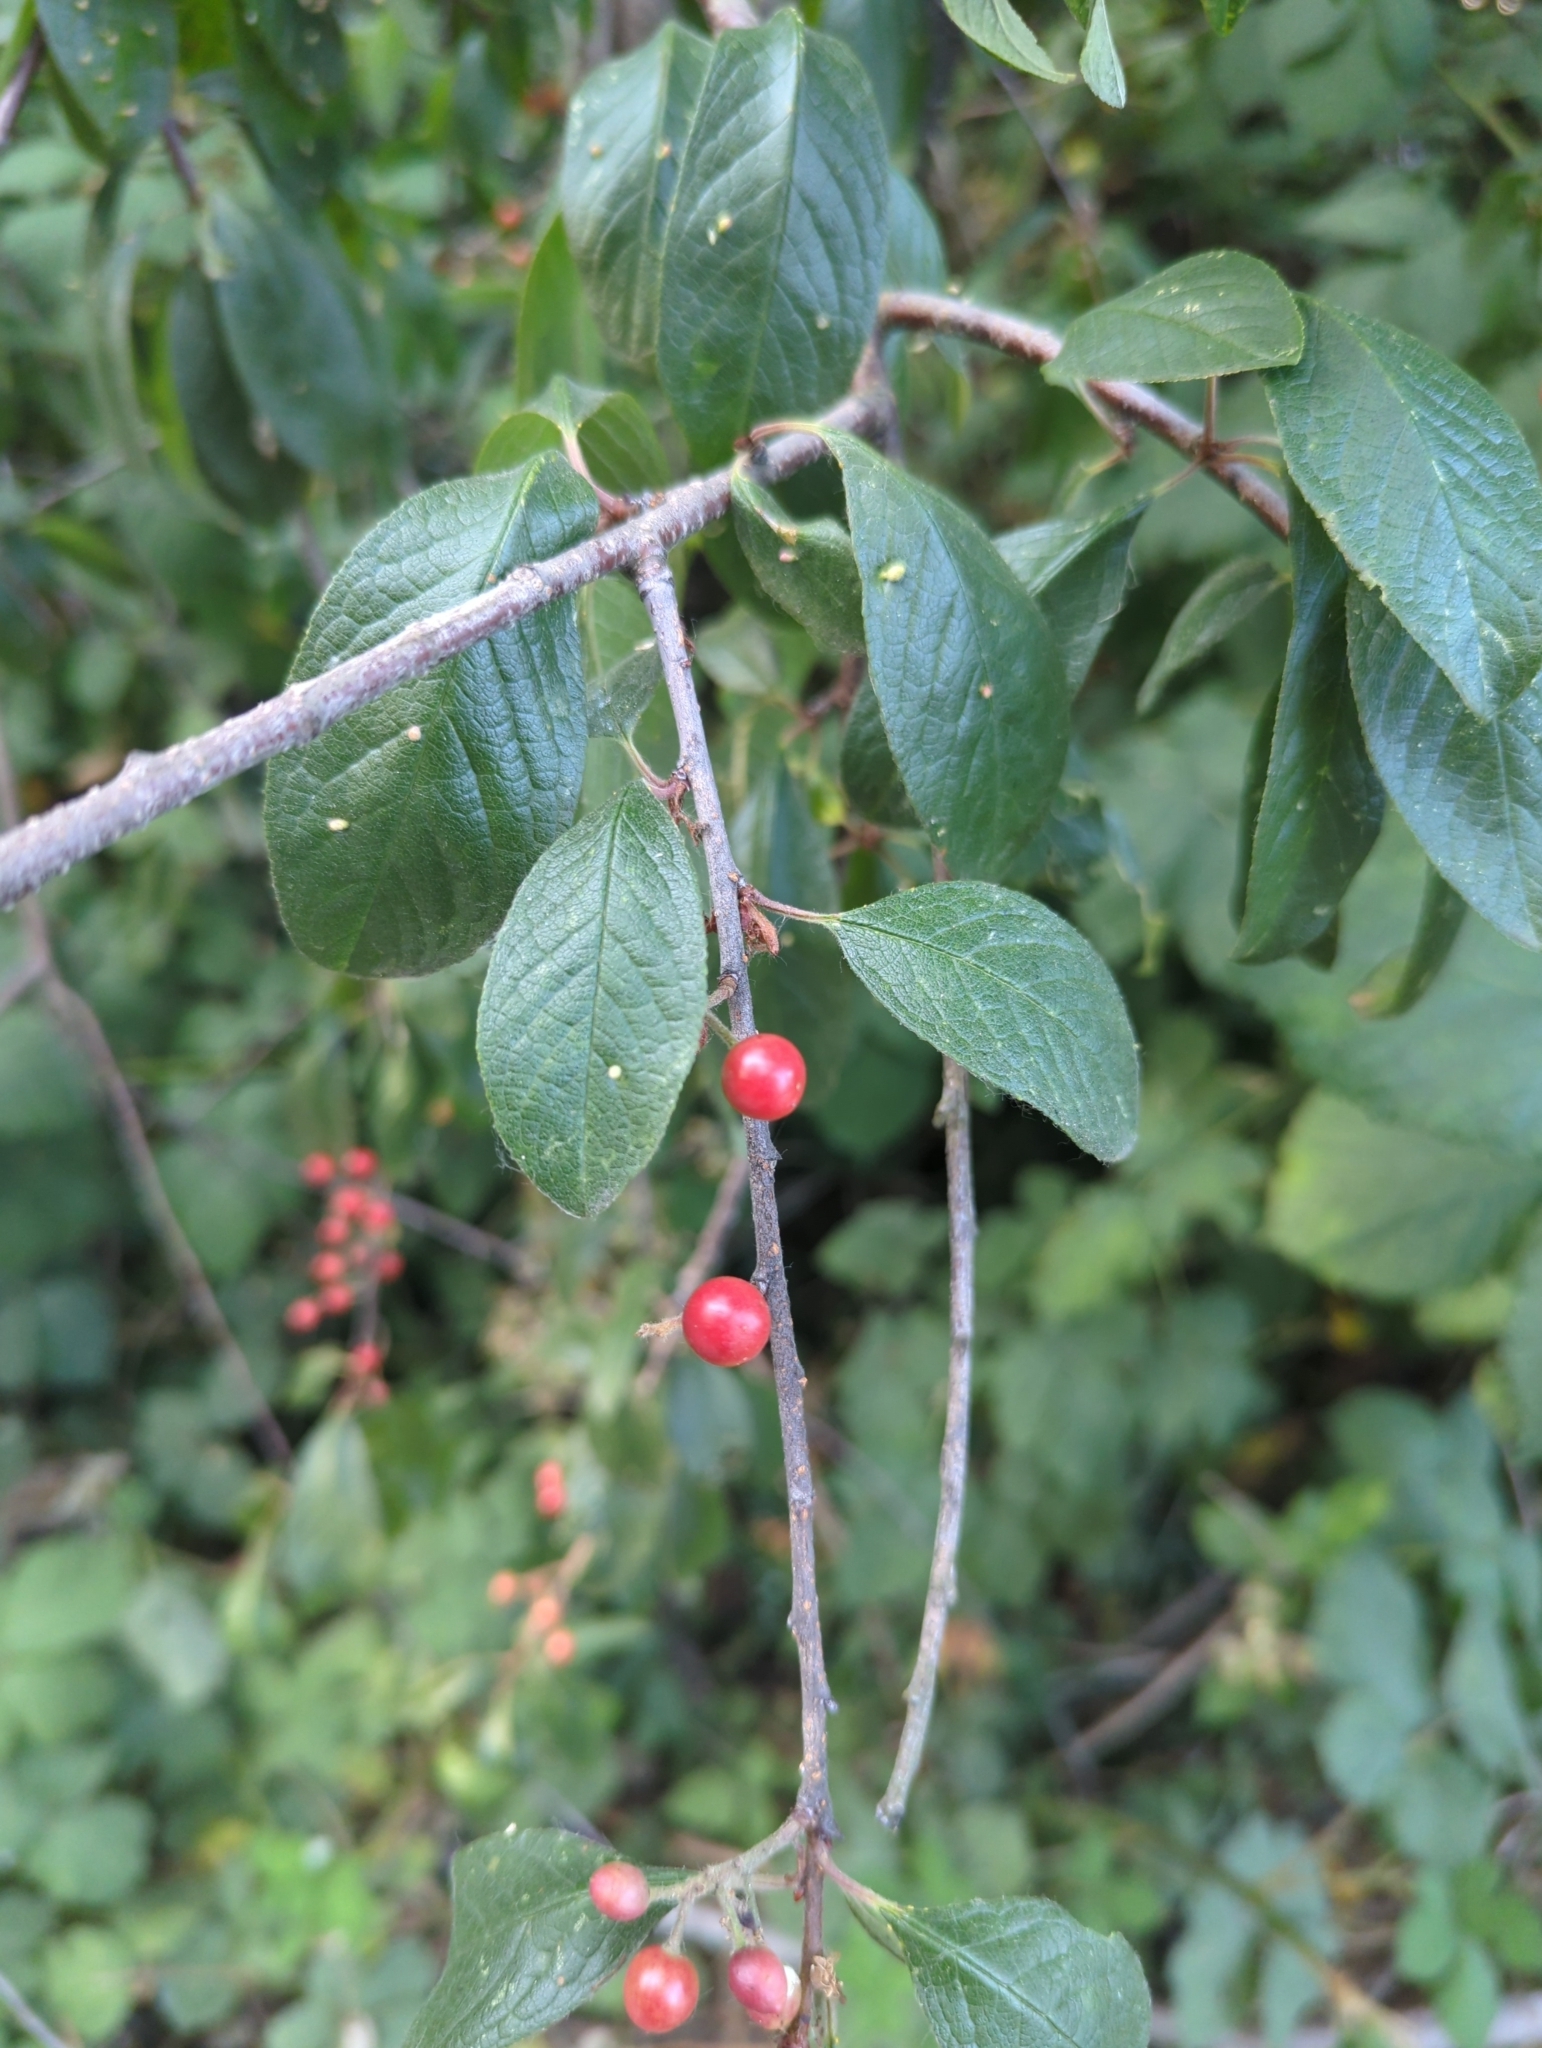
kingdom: Plantae
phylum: Tracheophyta
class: Magnoliopsida
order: Rosales
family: Rosaceae
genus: Prunus
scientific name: Prunus emarginata
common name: Bitter cherry
